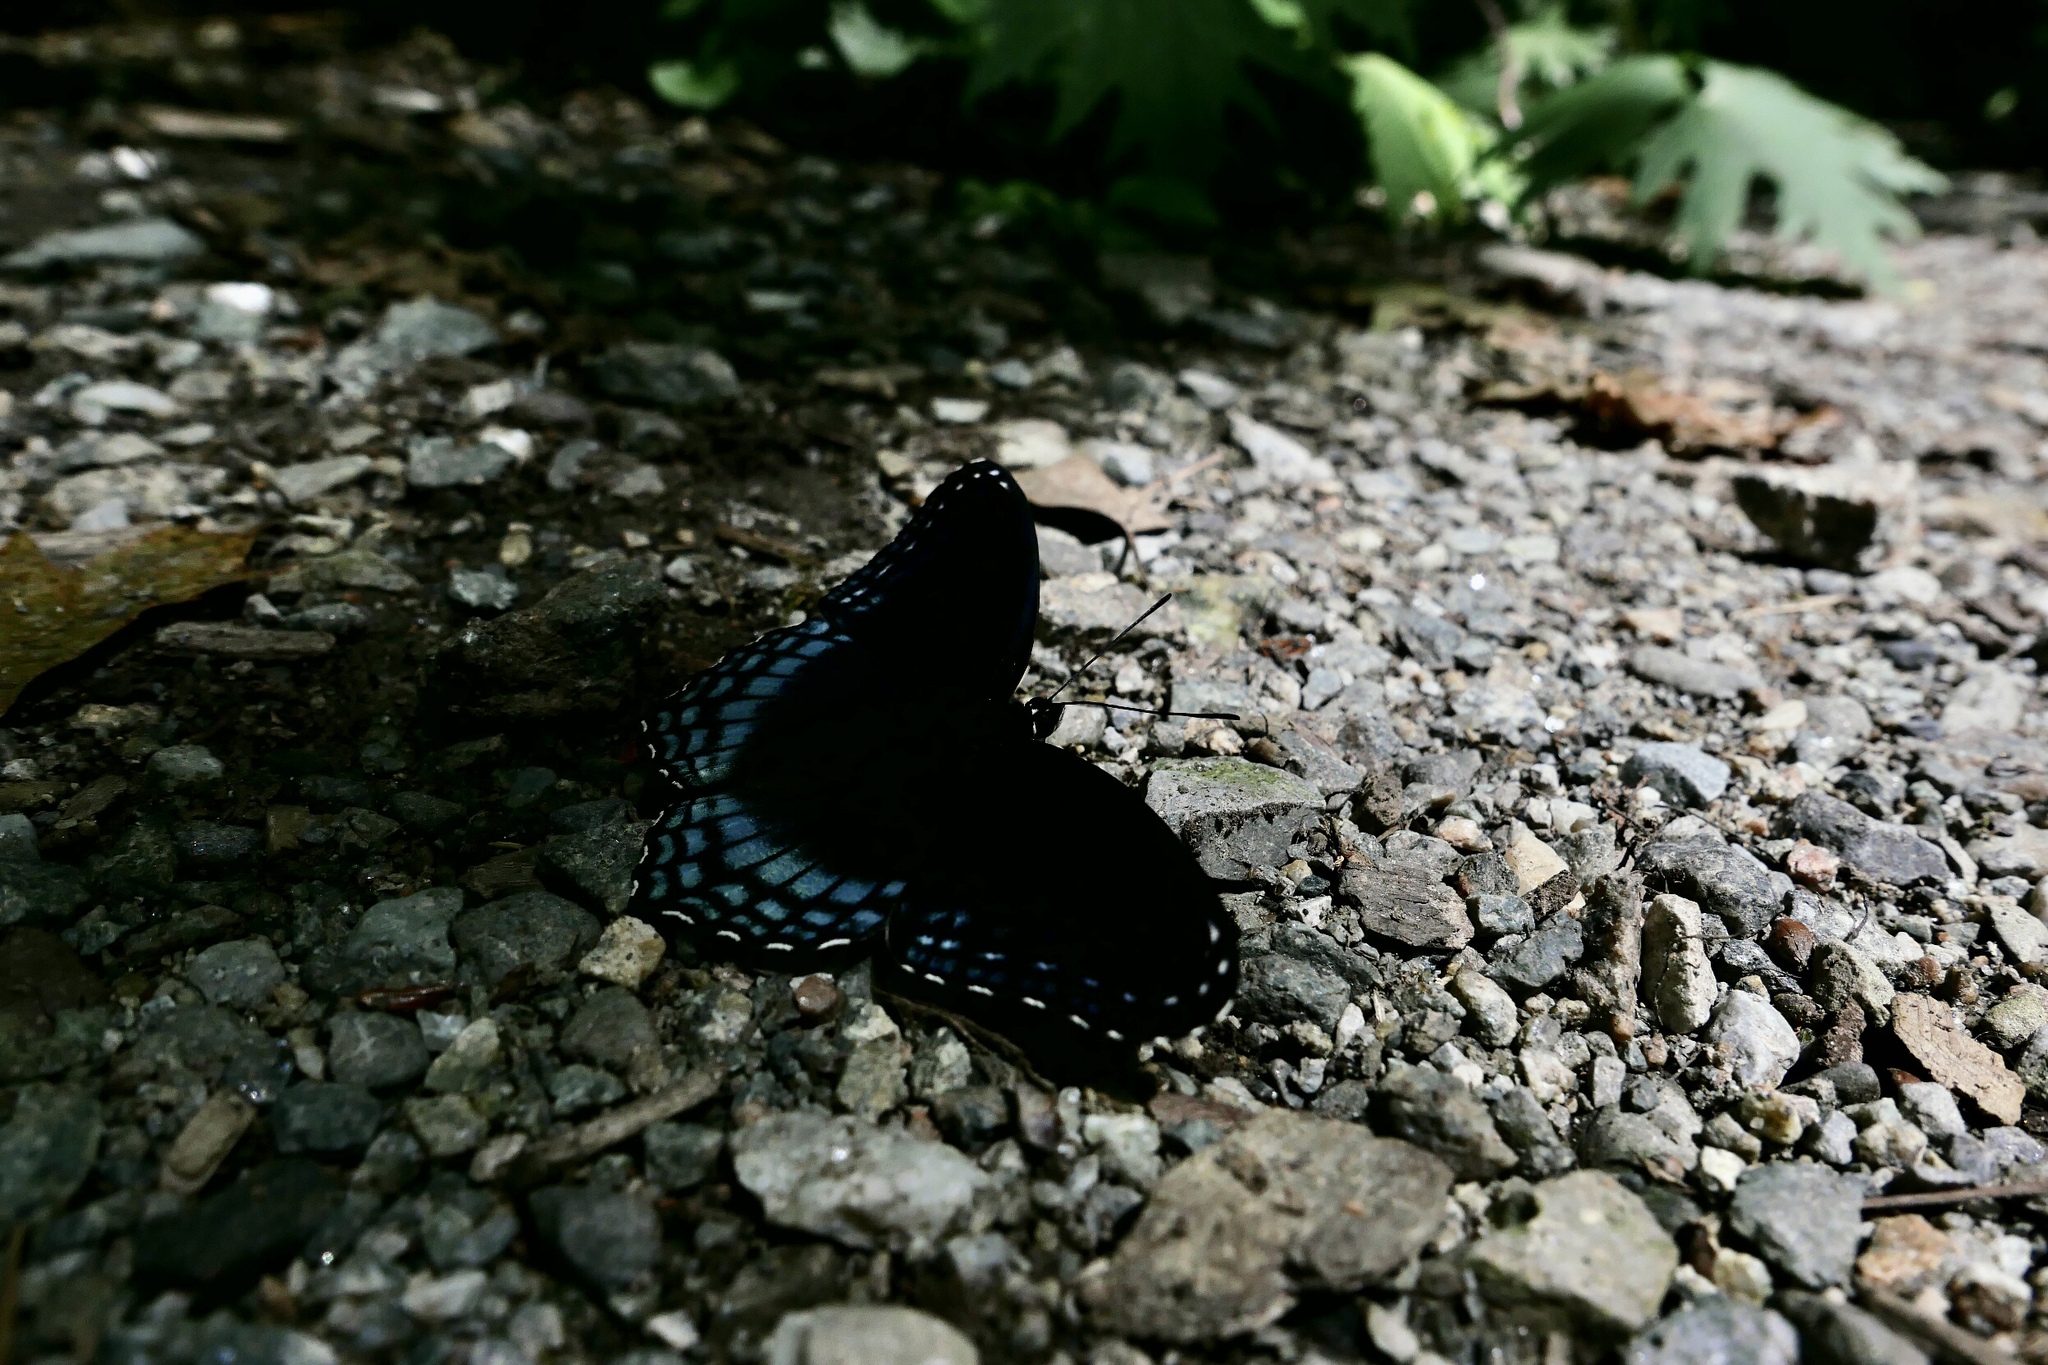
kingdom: Animalia
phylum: Arthropoda
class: Insecta
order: Lepidoptera
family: Nymphalidae
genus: Limenitis
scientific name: Limenitis arthemis
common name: Red-spotted admiral
